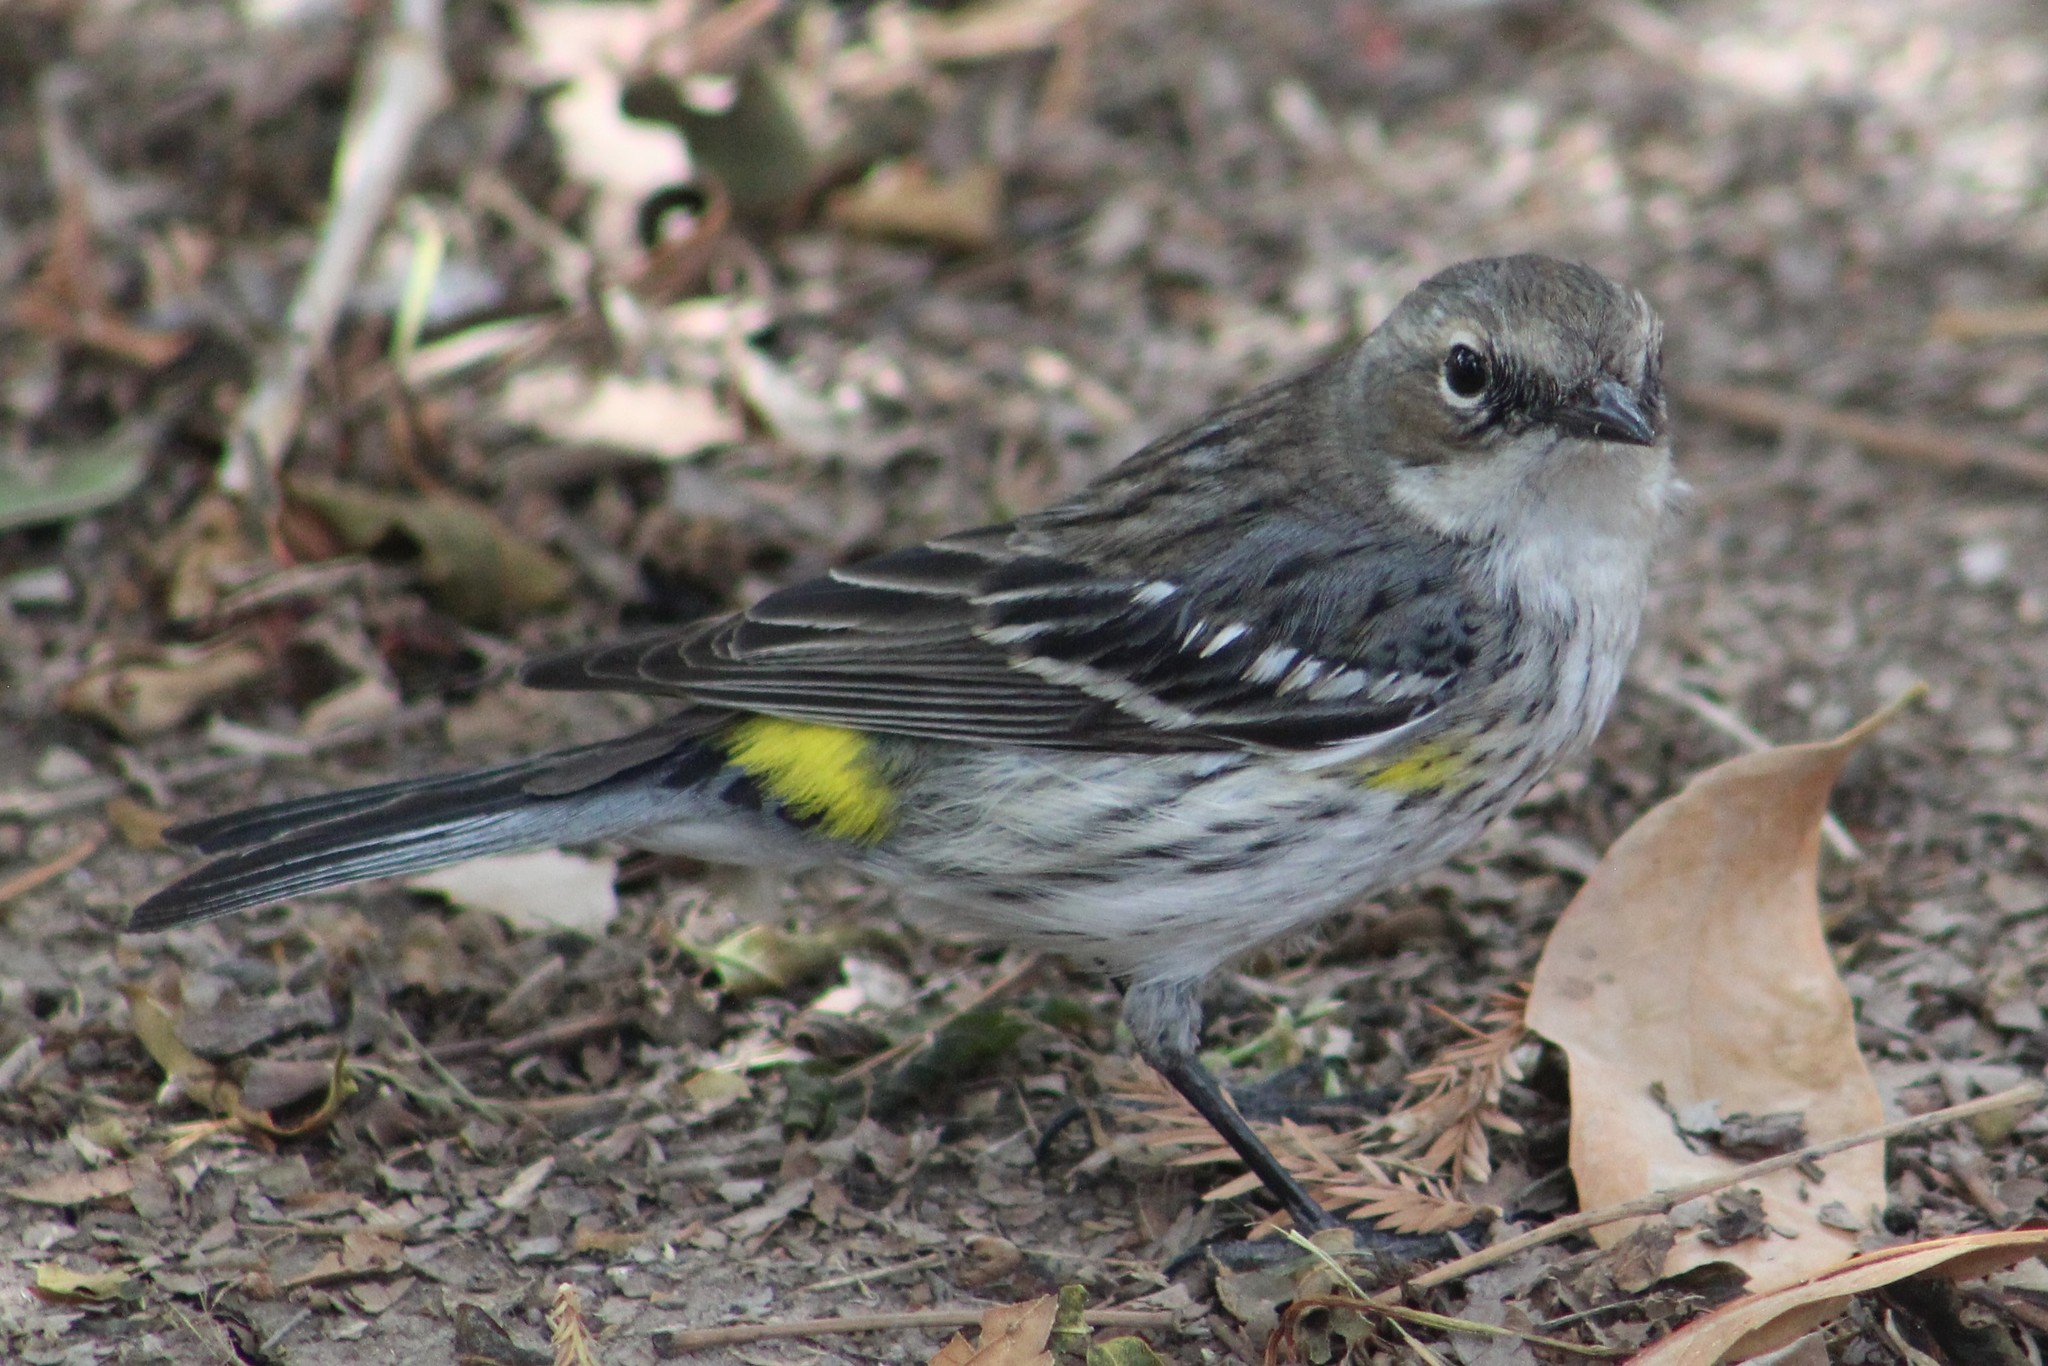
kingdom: Animalia
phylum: Chordata
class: Aves
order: Passeriformes
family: Parulidae
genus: Setophaga
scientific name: Setophaga coronata
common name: Myrtle warbler
